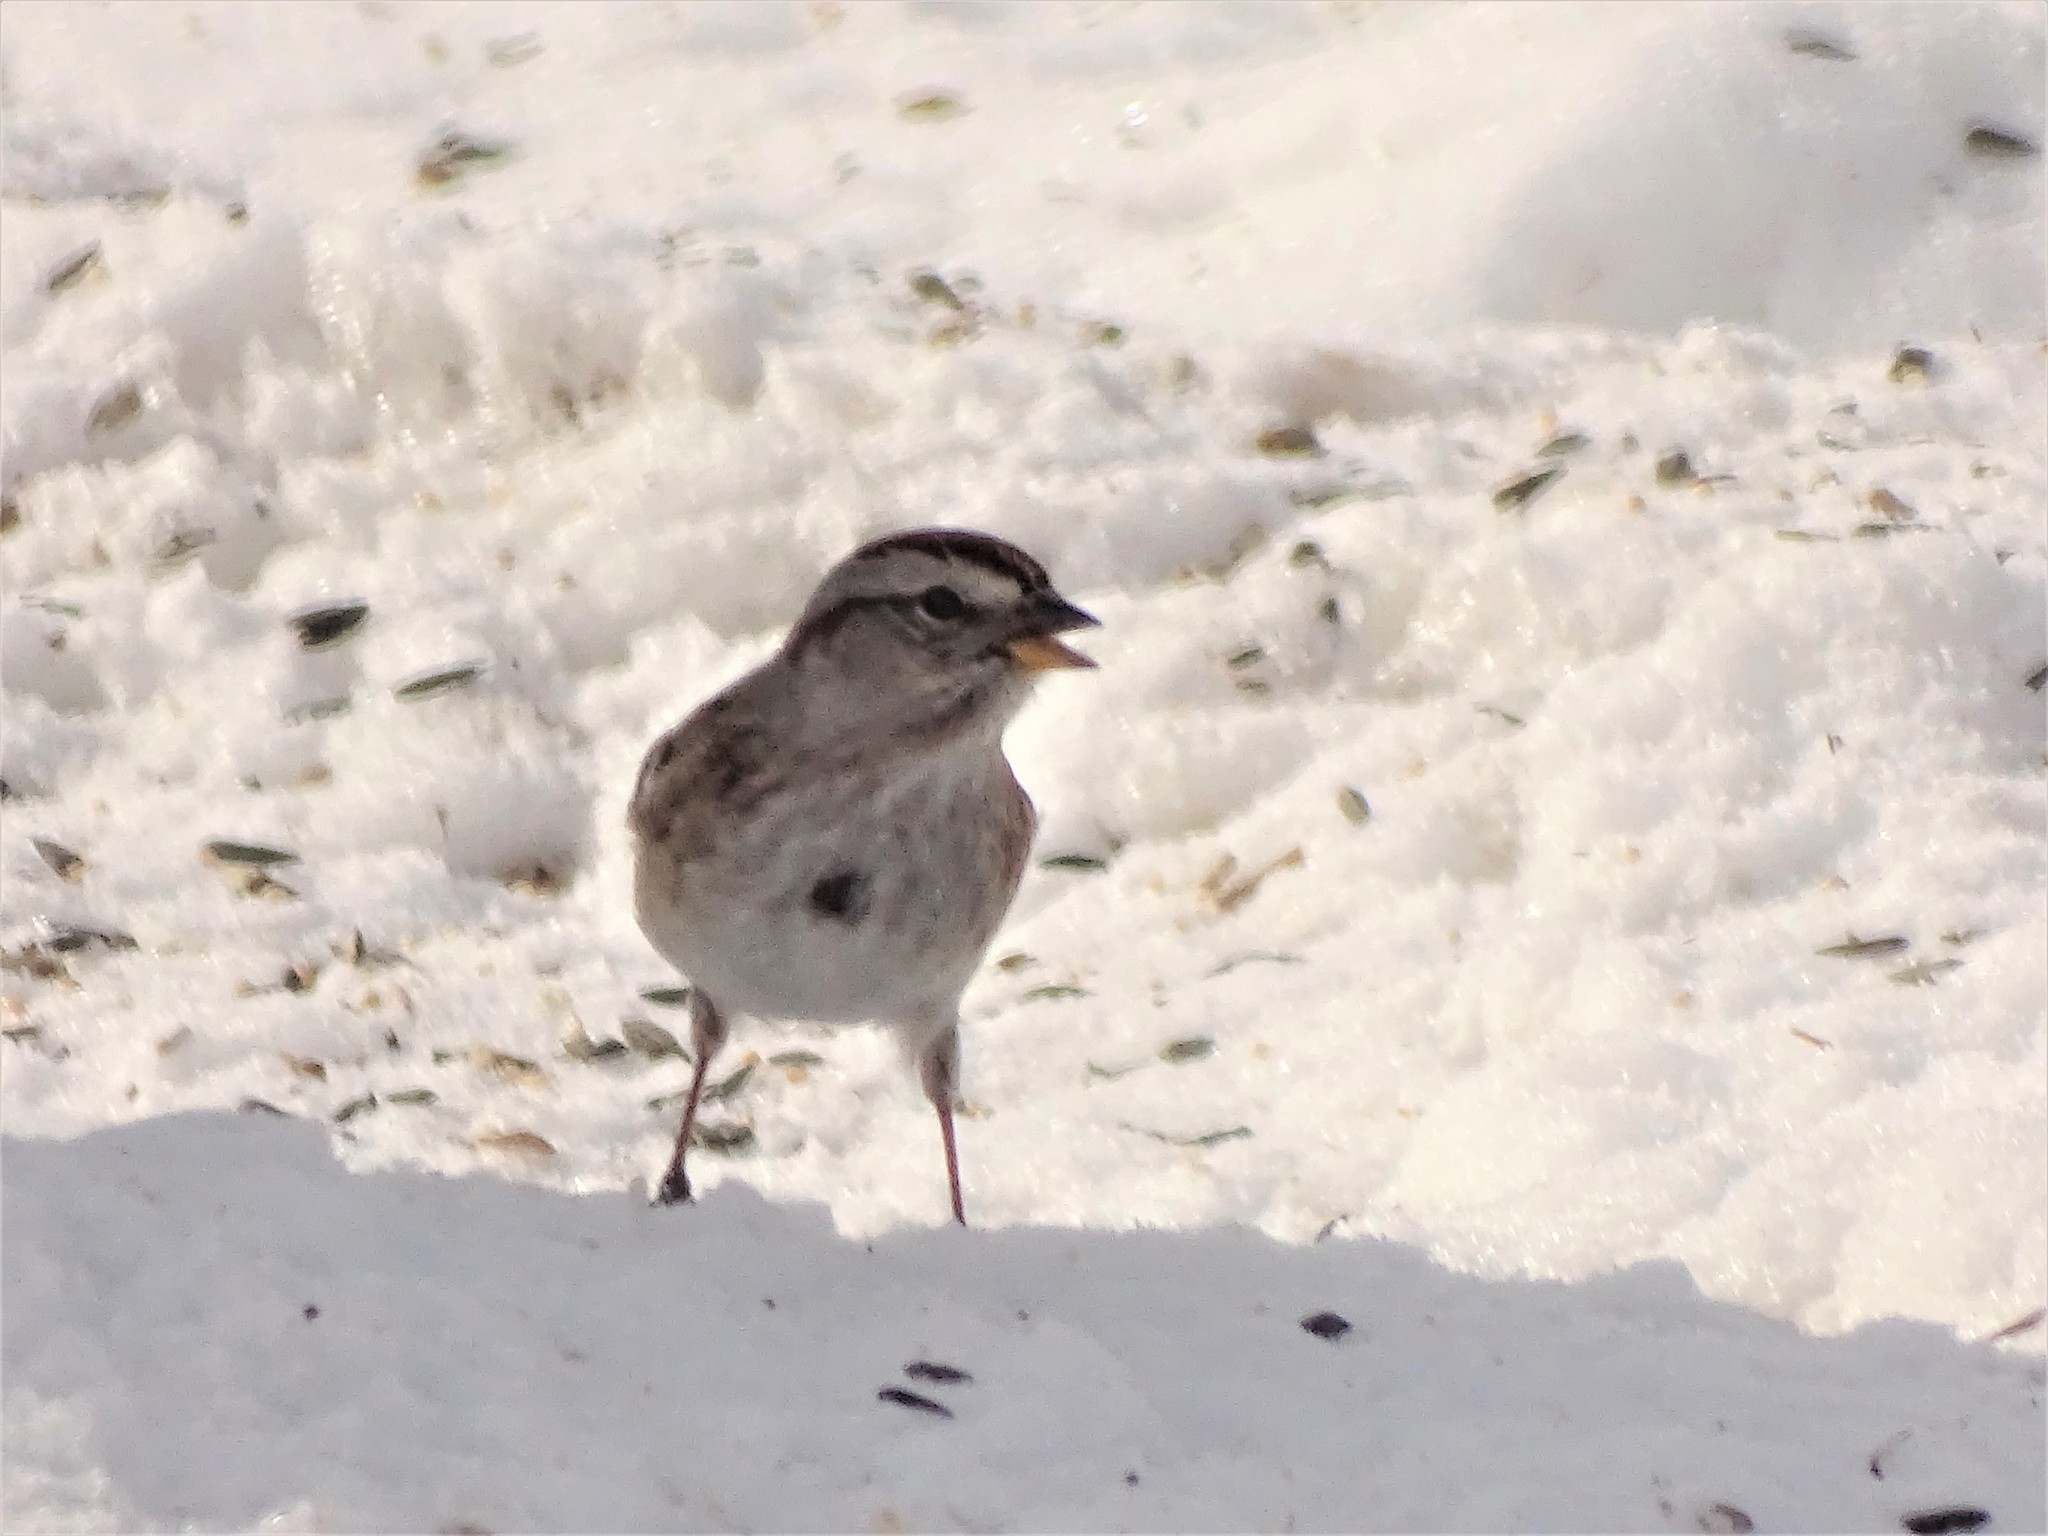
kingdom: Animalia
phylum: Chordata
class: Aves
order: Passeriformes
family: Passerellidae
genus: Spizelloides
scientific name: Spizelloides arborea
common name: American tree sparrow
